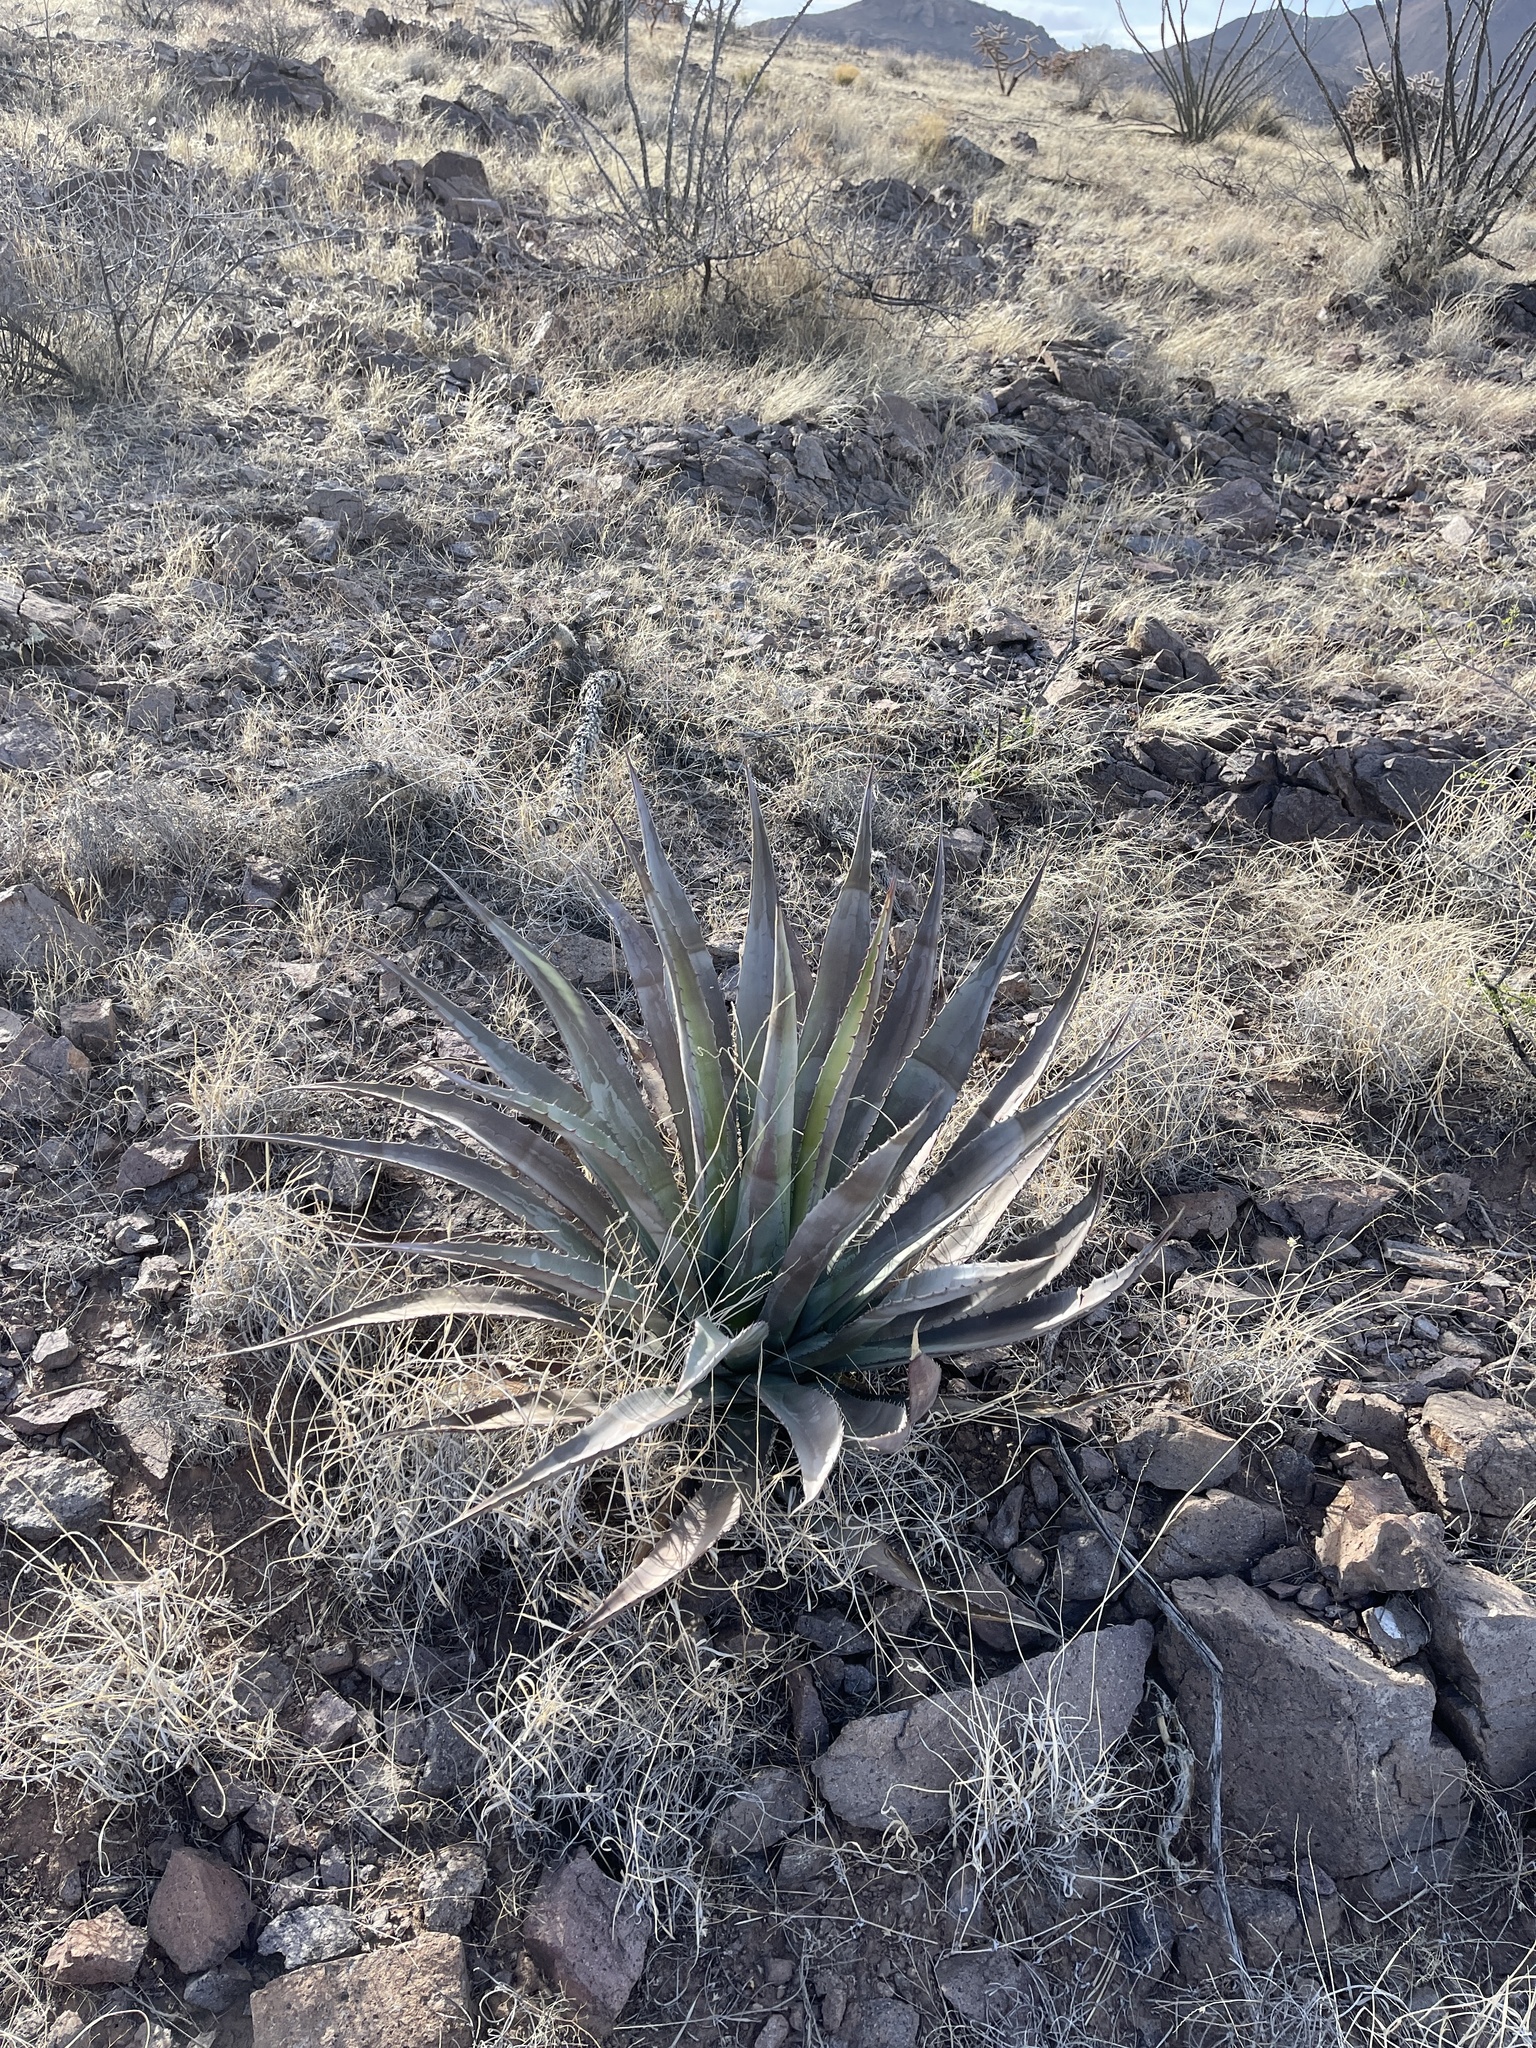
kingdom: Plantae
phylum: Tracheophyta
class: Liliopsida
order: Asparagales
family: Asparagaceae
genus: Agave
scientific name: Agave palmeri
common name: Palmer agave
